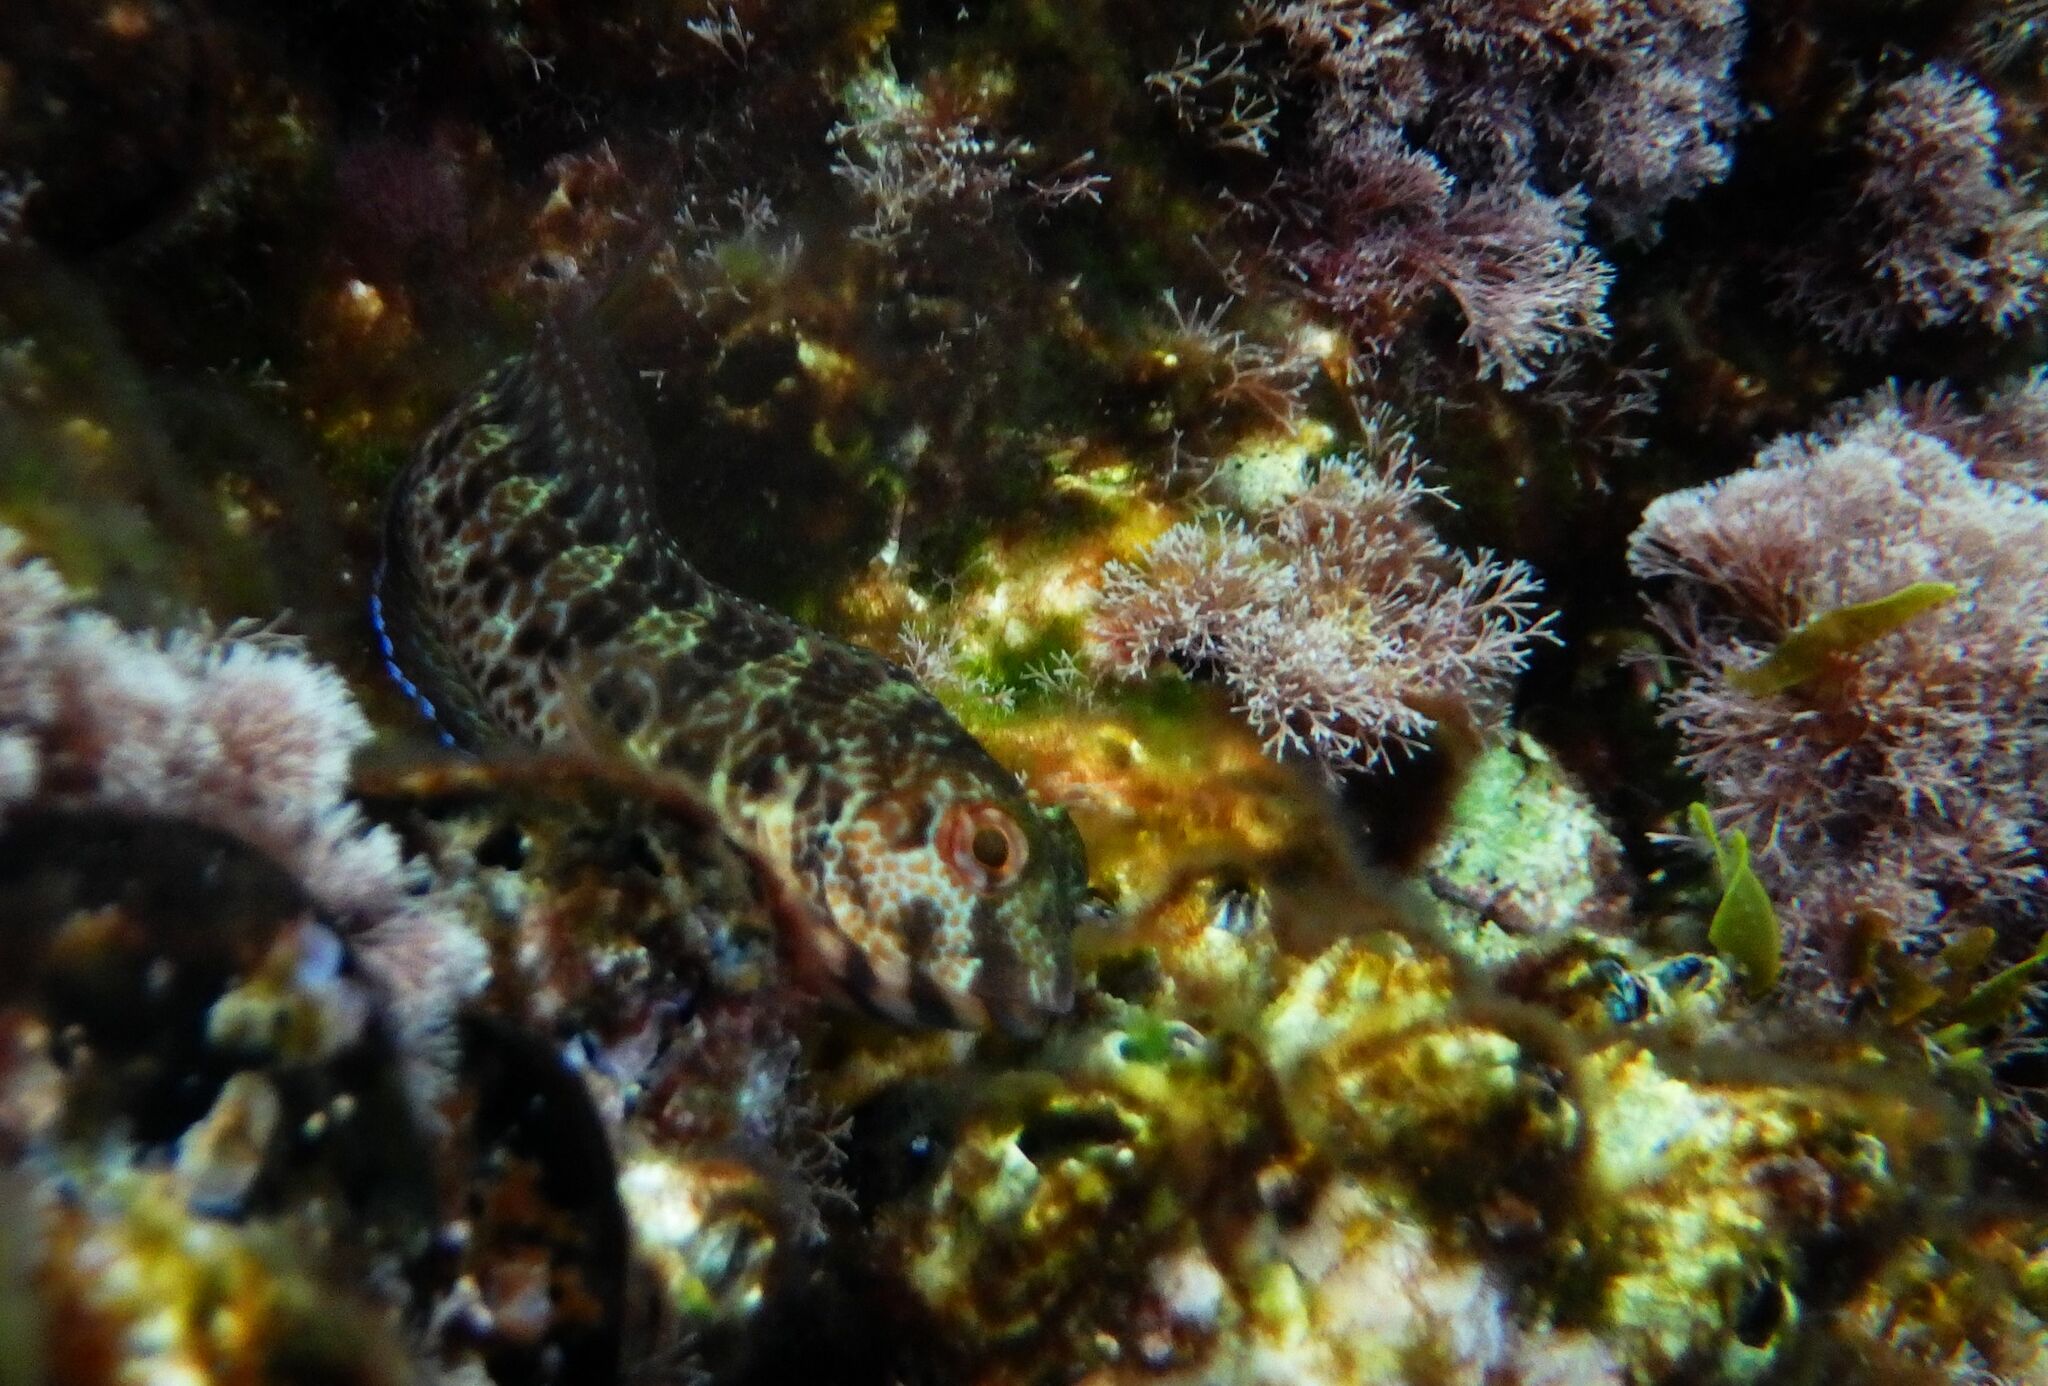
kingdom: Animalia
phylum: Chordata
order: Perciformes
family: Blenniidae
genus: Parablennius
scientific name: Parablennius pilicornis
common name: Ringneck blenny
